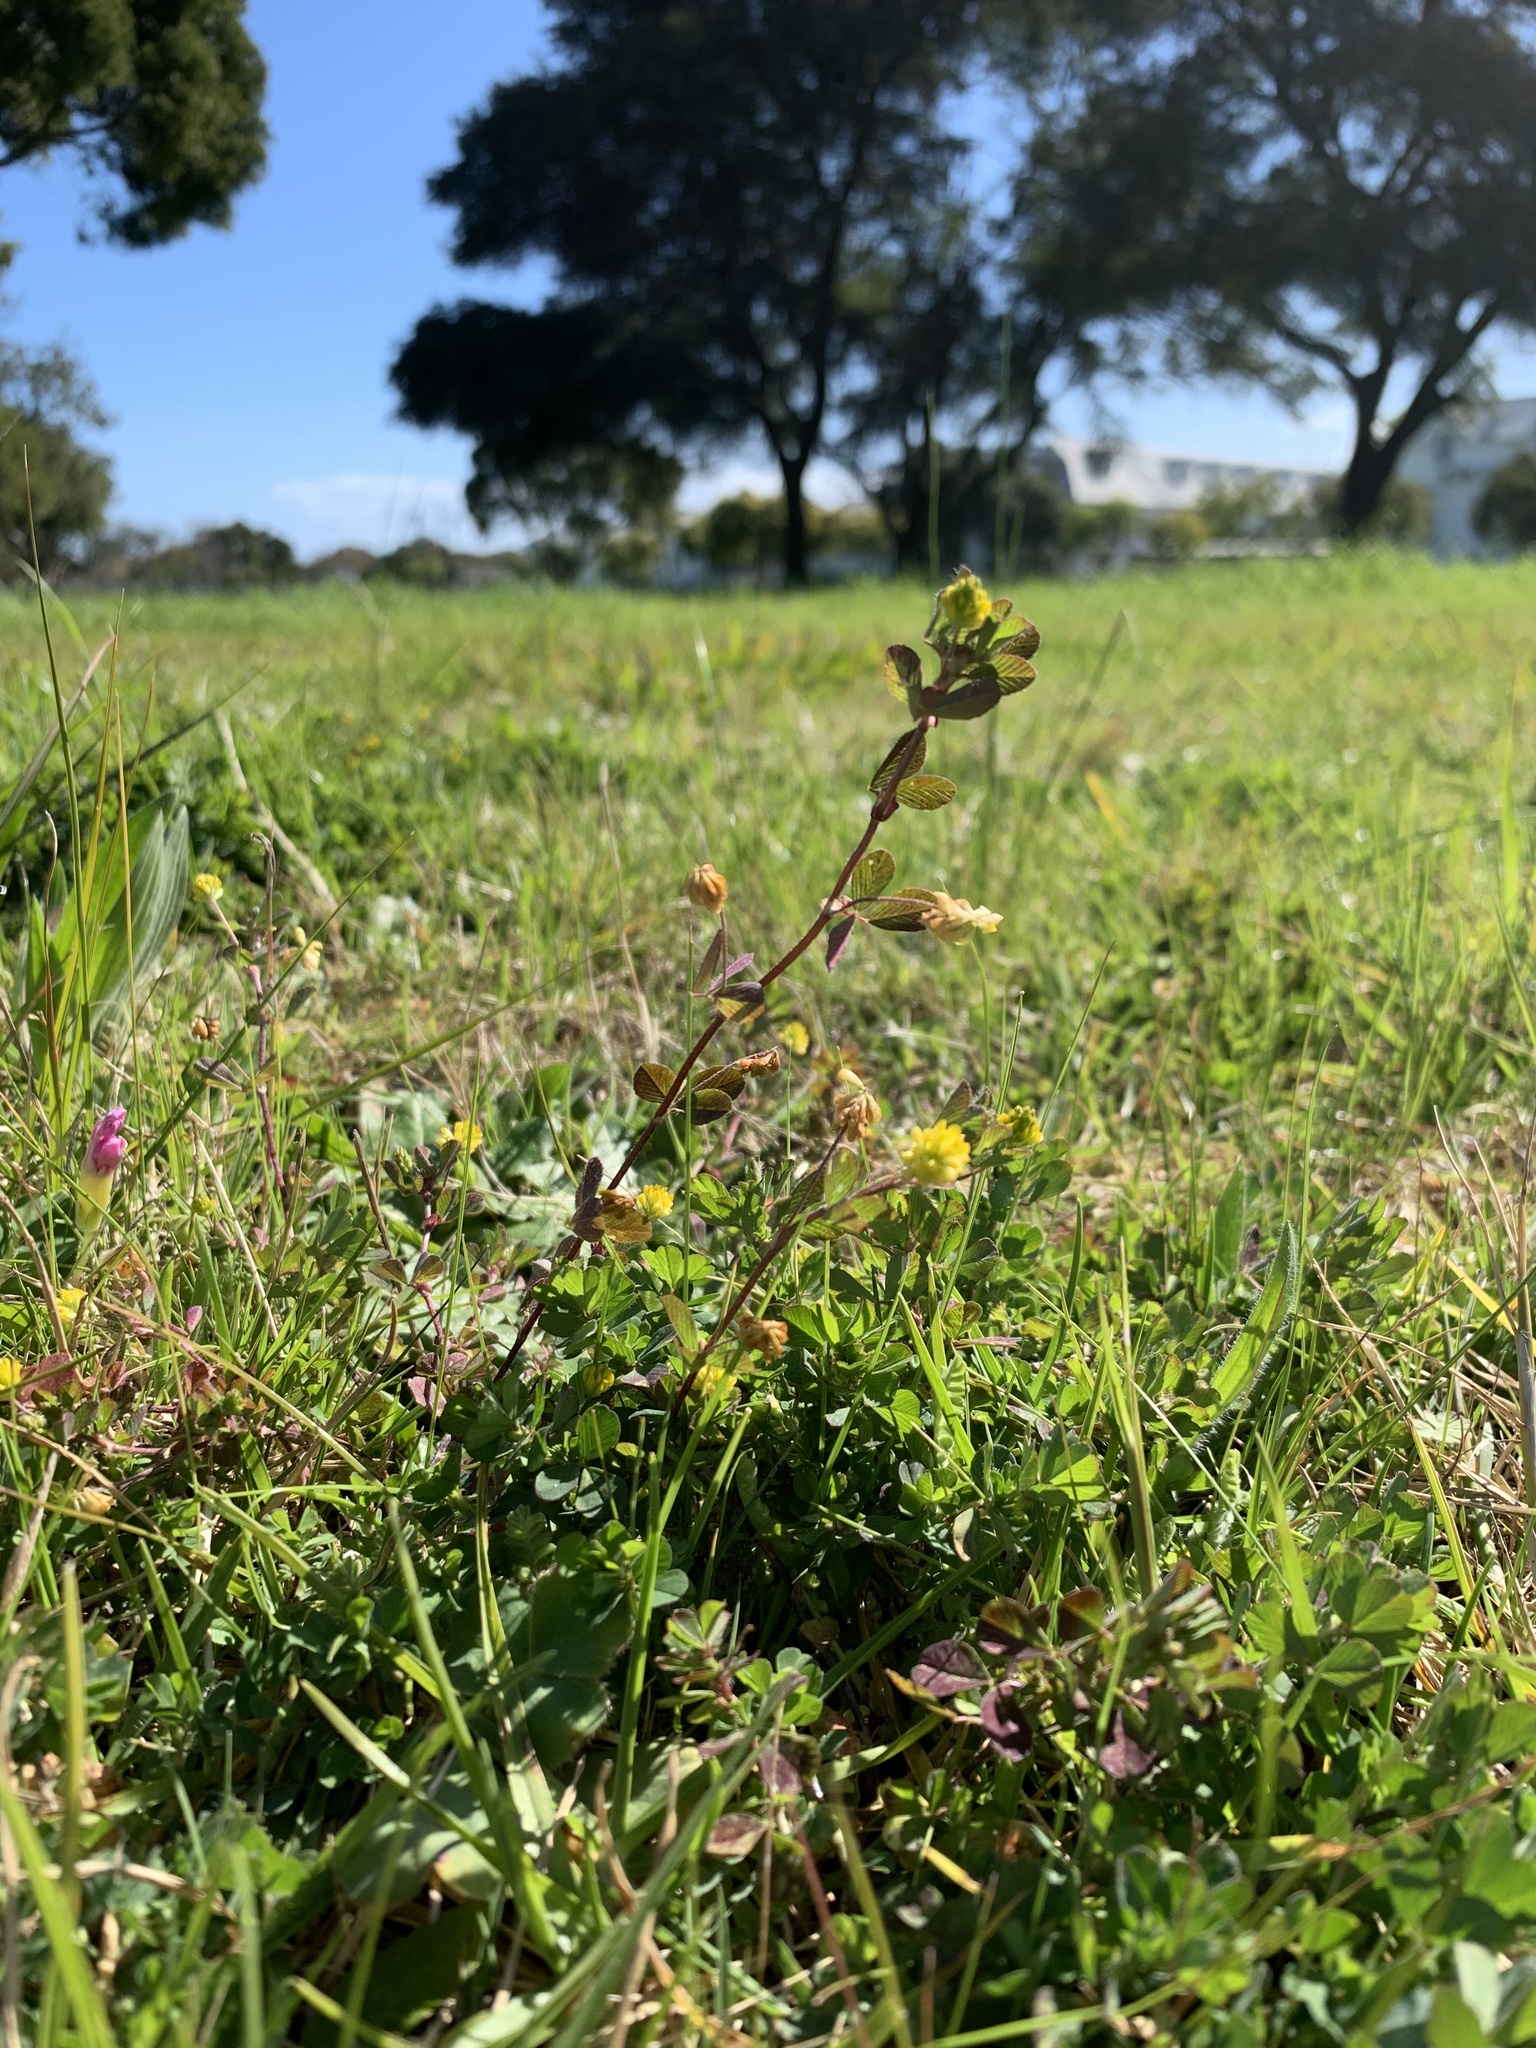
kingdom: Plantae
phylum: Tracheophyta
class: Magnoliopsida
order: Fabales
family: Fabaceae
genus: Trifolium
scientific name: Trifolium dubium
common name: Suckling clover
